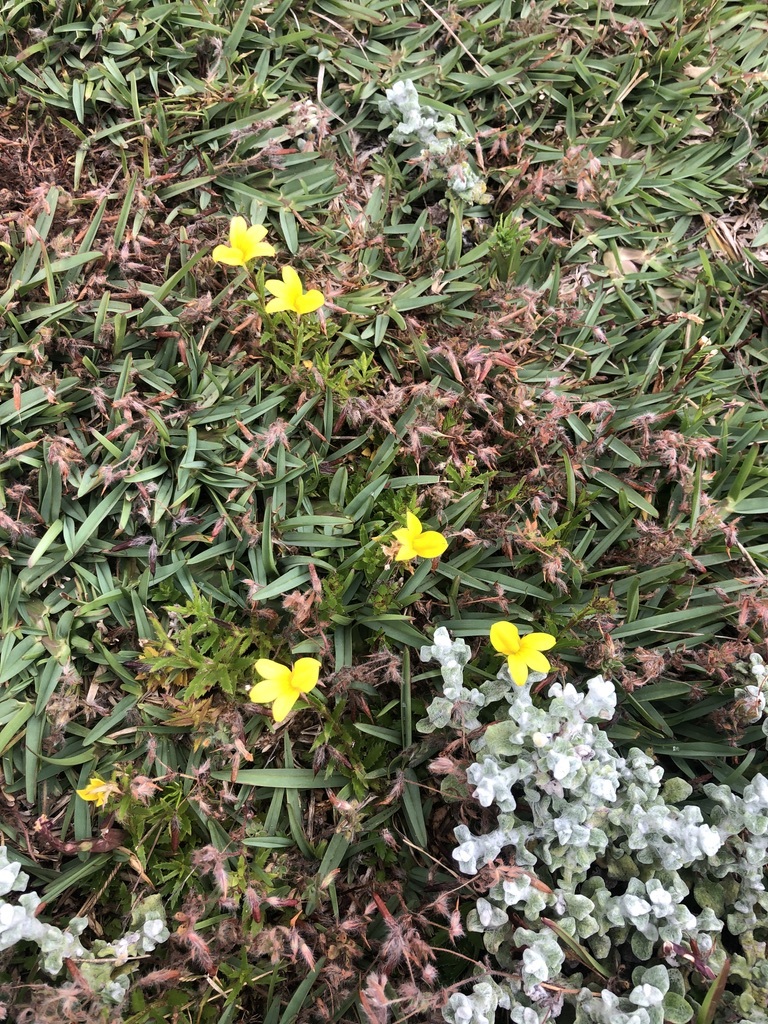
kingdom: Plantae
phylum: Tracheophyta
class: Magnoliopsida
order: Asterales
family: Campanulaceae
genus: Monopsis
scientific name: Monopsis lutea
